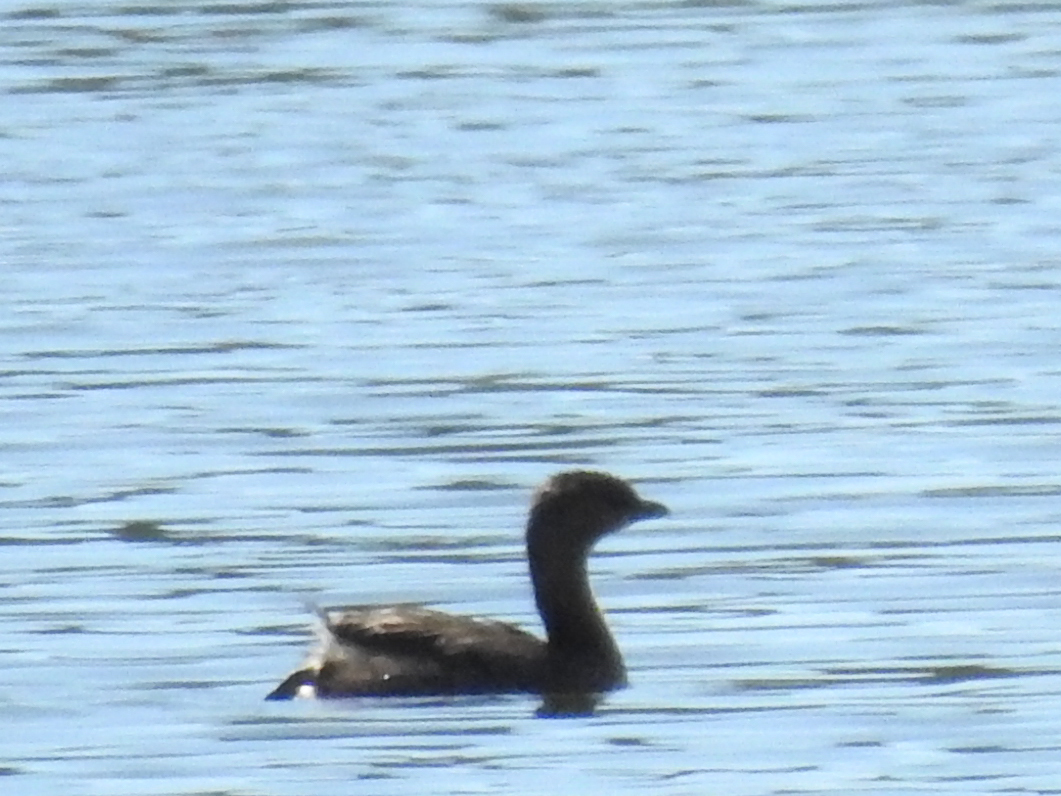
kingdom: Animalia
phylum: Chordata
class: Aves
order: Podicipediformes
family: Podicipedidae
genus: Podilymbus
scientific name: Podilymbus podiceps
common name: Pied-billed grebe
